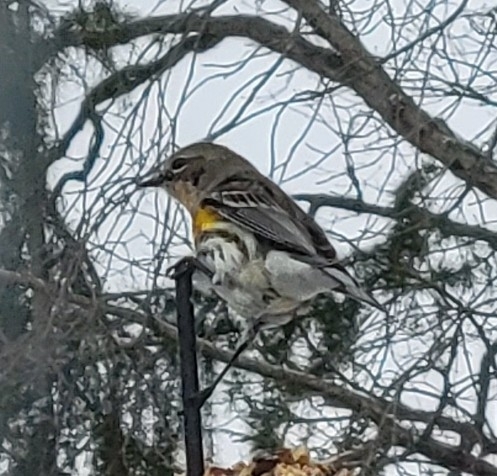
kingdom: Animalia
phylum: Chordata
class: Aves
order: Passeriformes
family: Parulidae
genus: Setophaga
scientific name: Setophaga coronata
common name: Myrtle warbler
